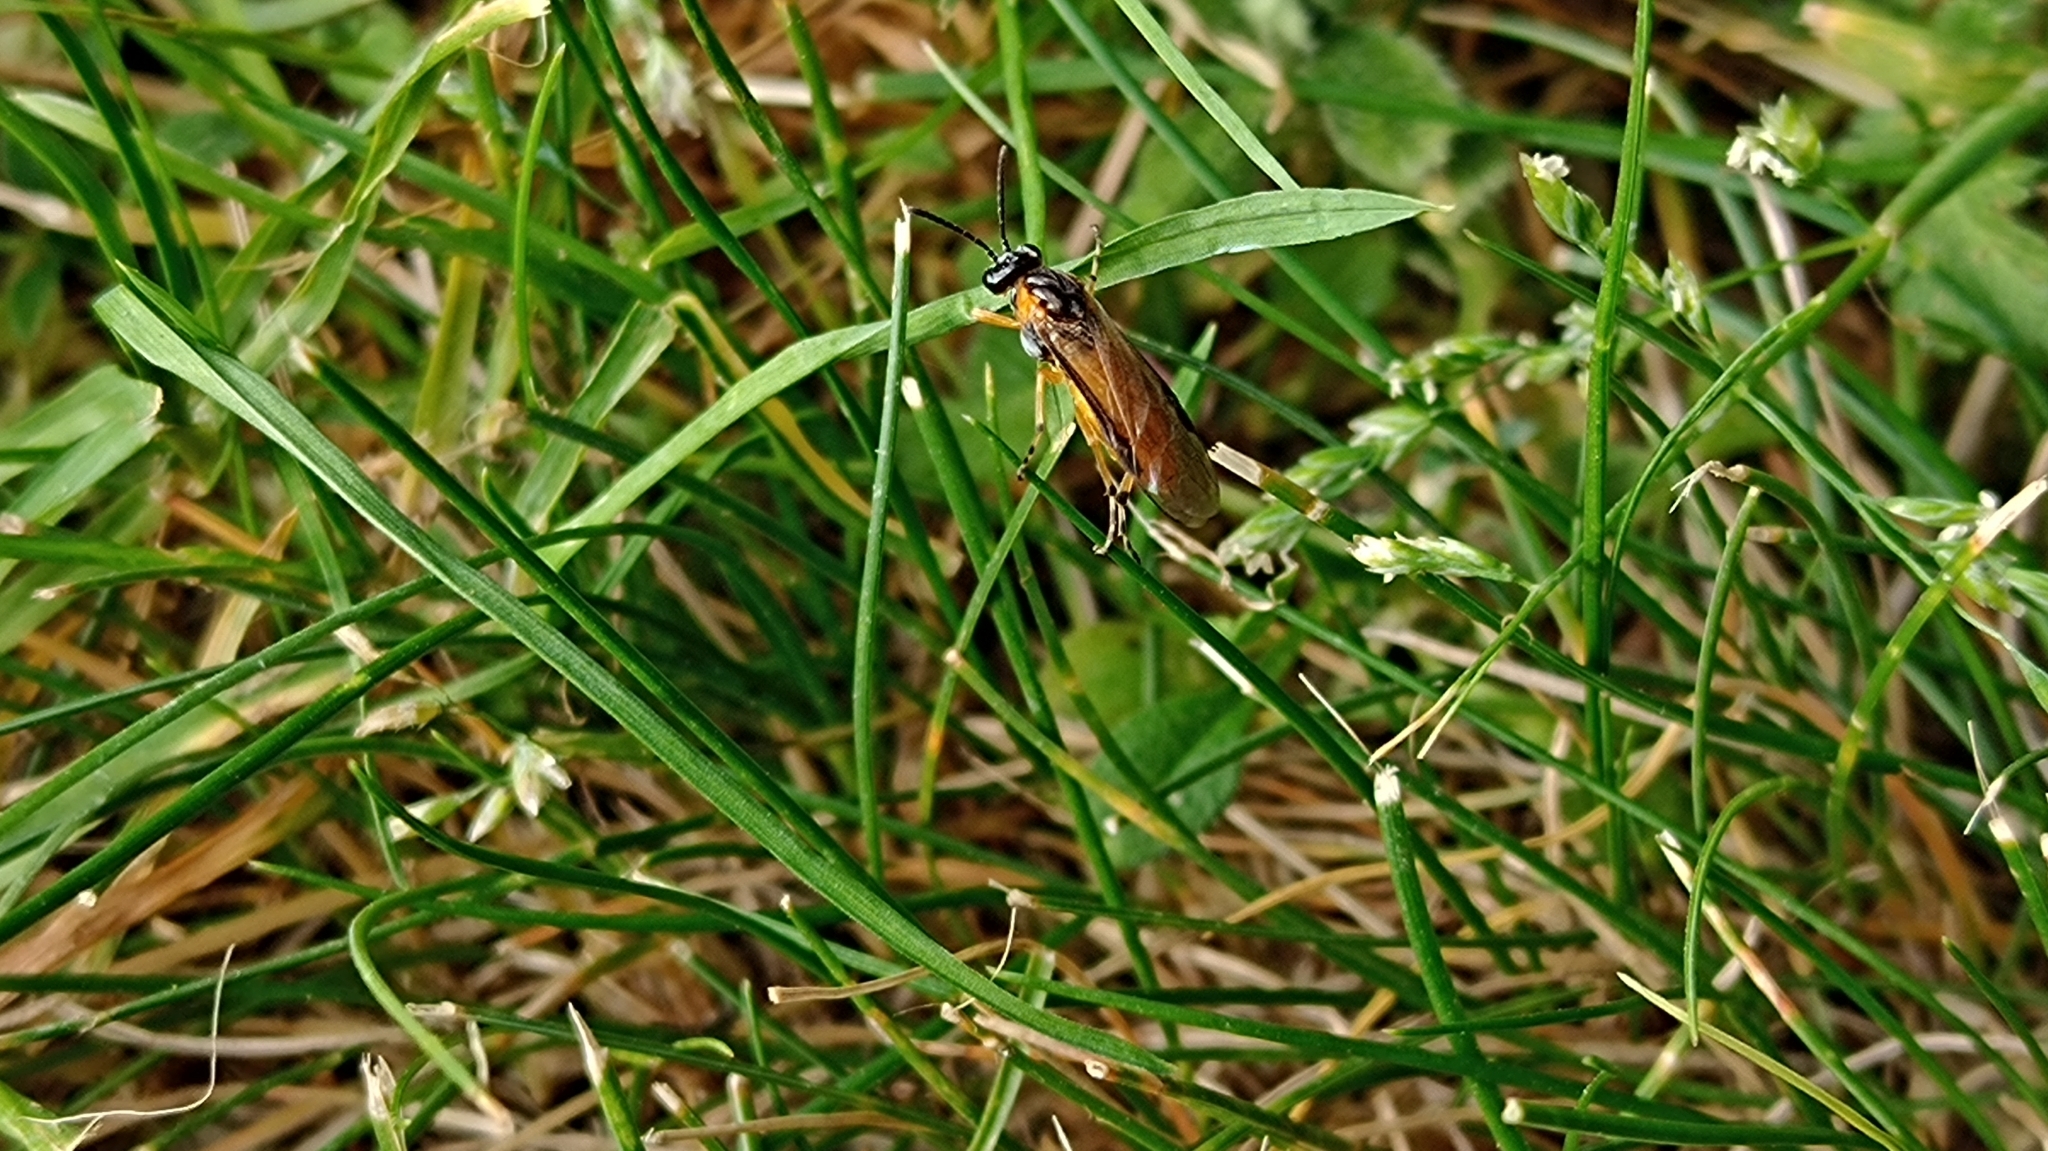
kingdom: Animalia
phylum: Arthropoda
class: Insecta
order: Hymenoptera
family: Tenthredinidae
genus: Athalia
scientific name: Athalia cordata
